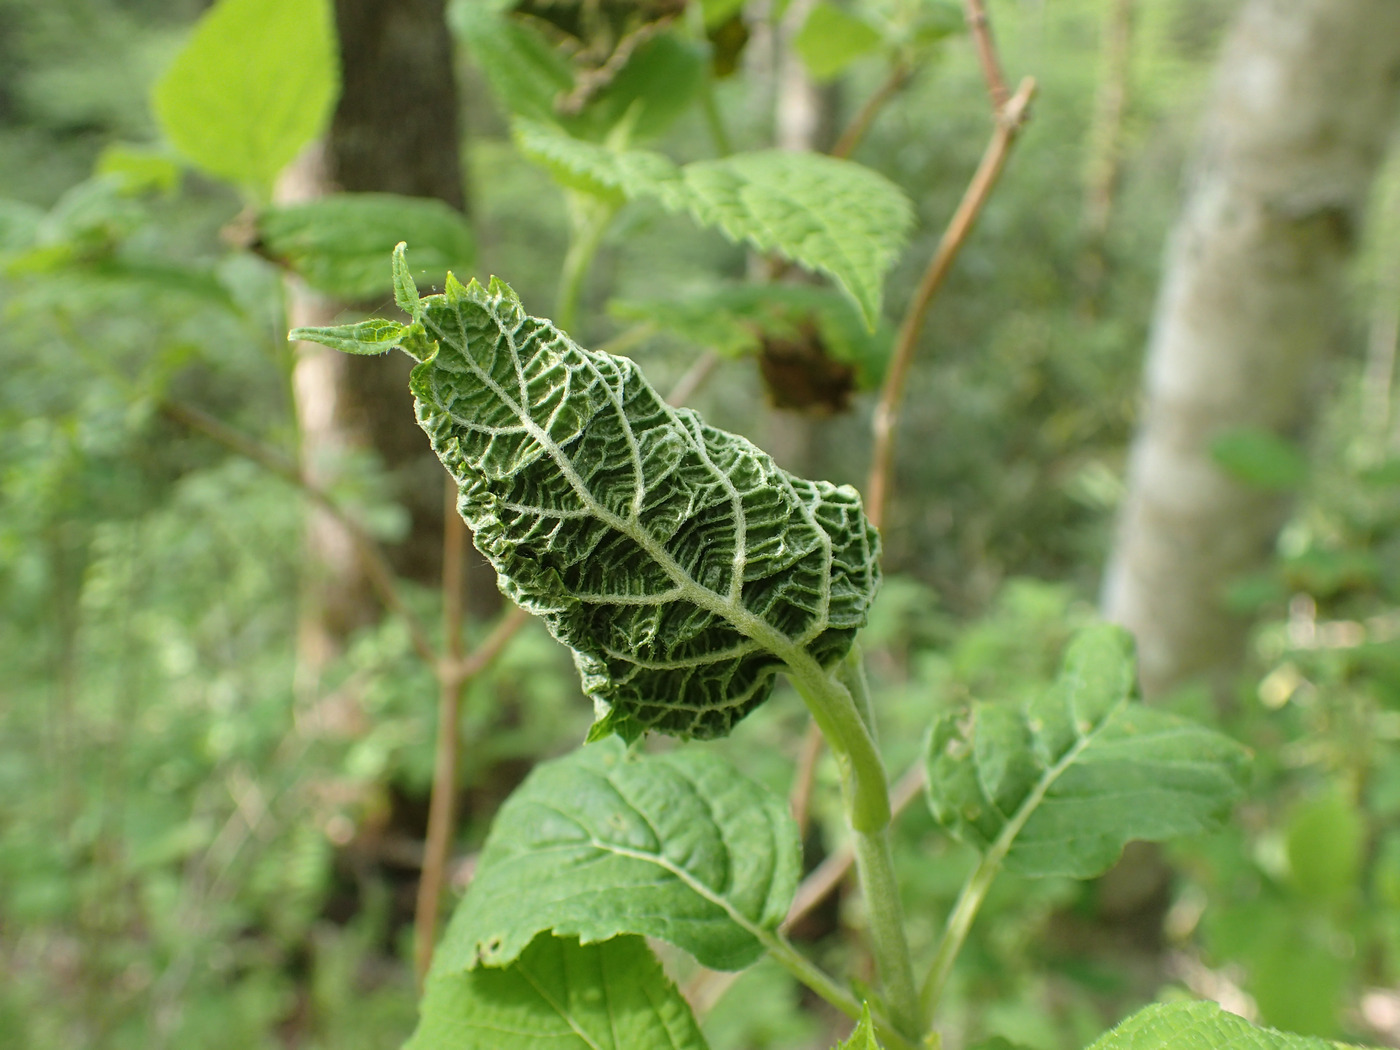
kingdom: Animalia
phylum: Arthropoda
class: Insecta
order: Lepidoptera
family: Tortricidae
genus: Olethreutes
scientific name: Olethreutes ferriferana
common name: Hydrangea leaftier moth
